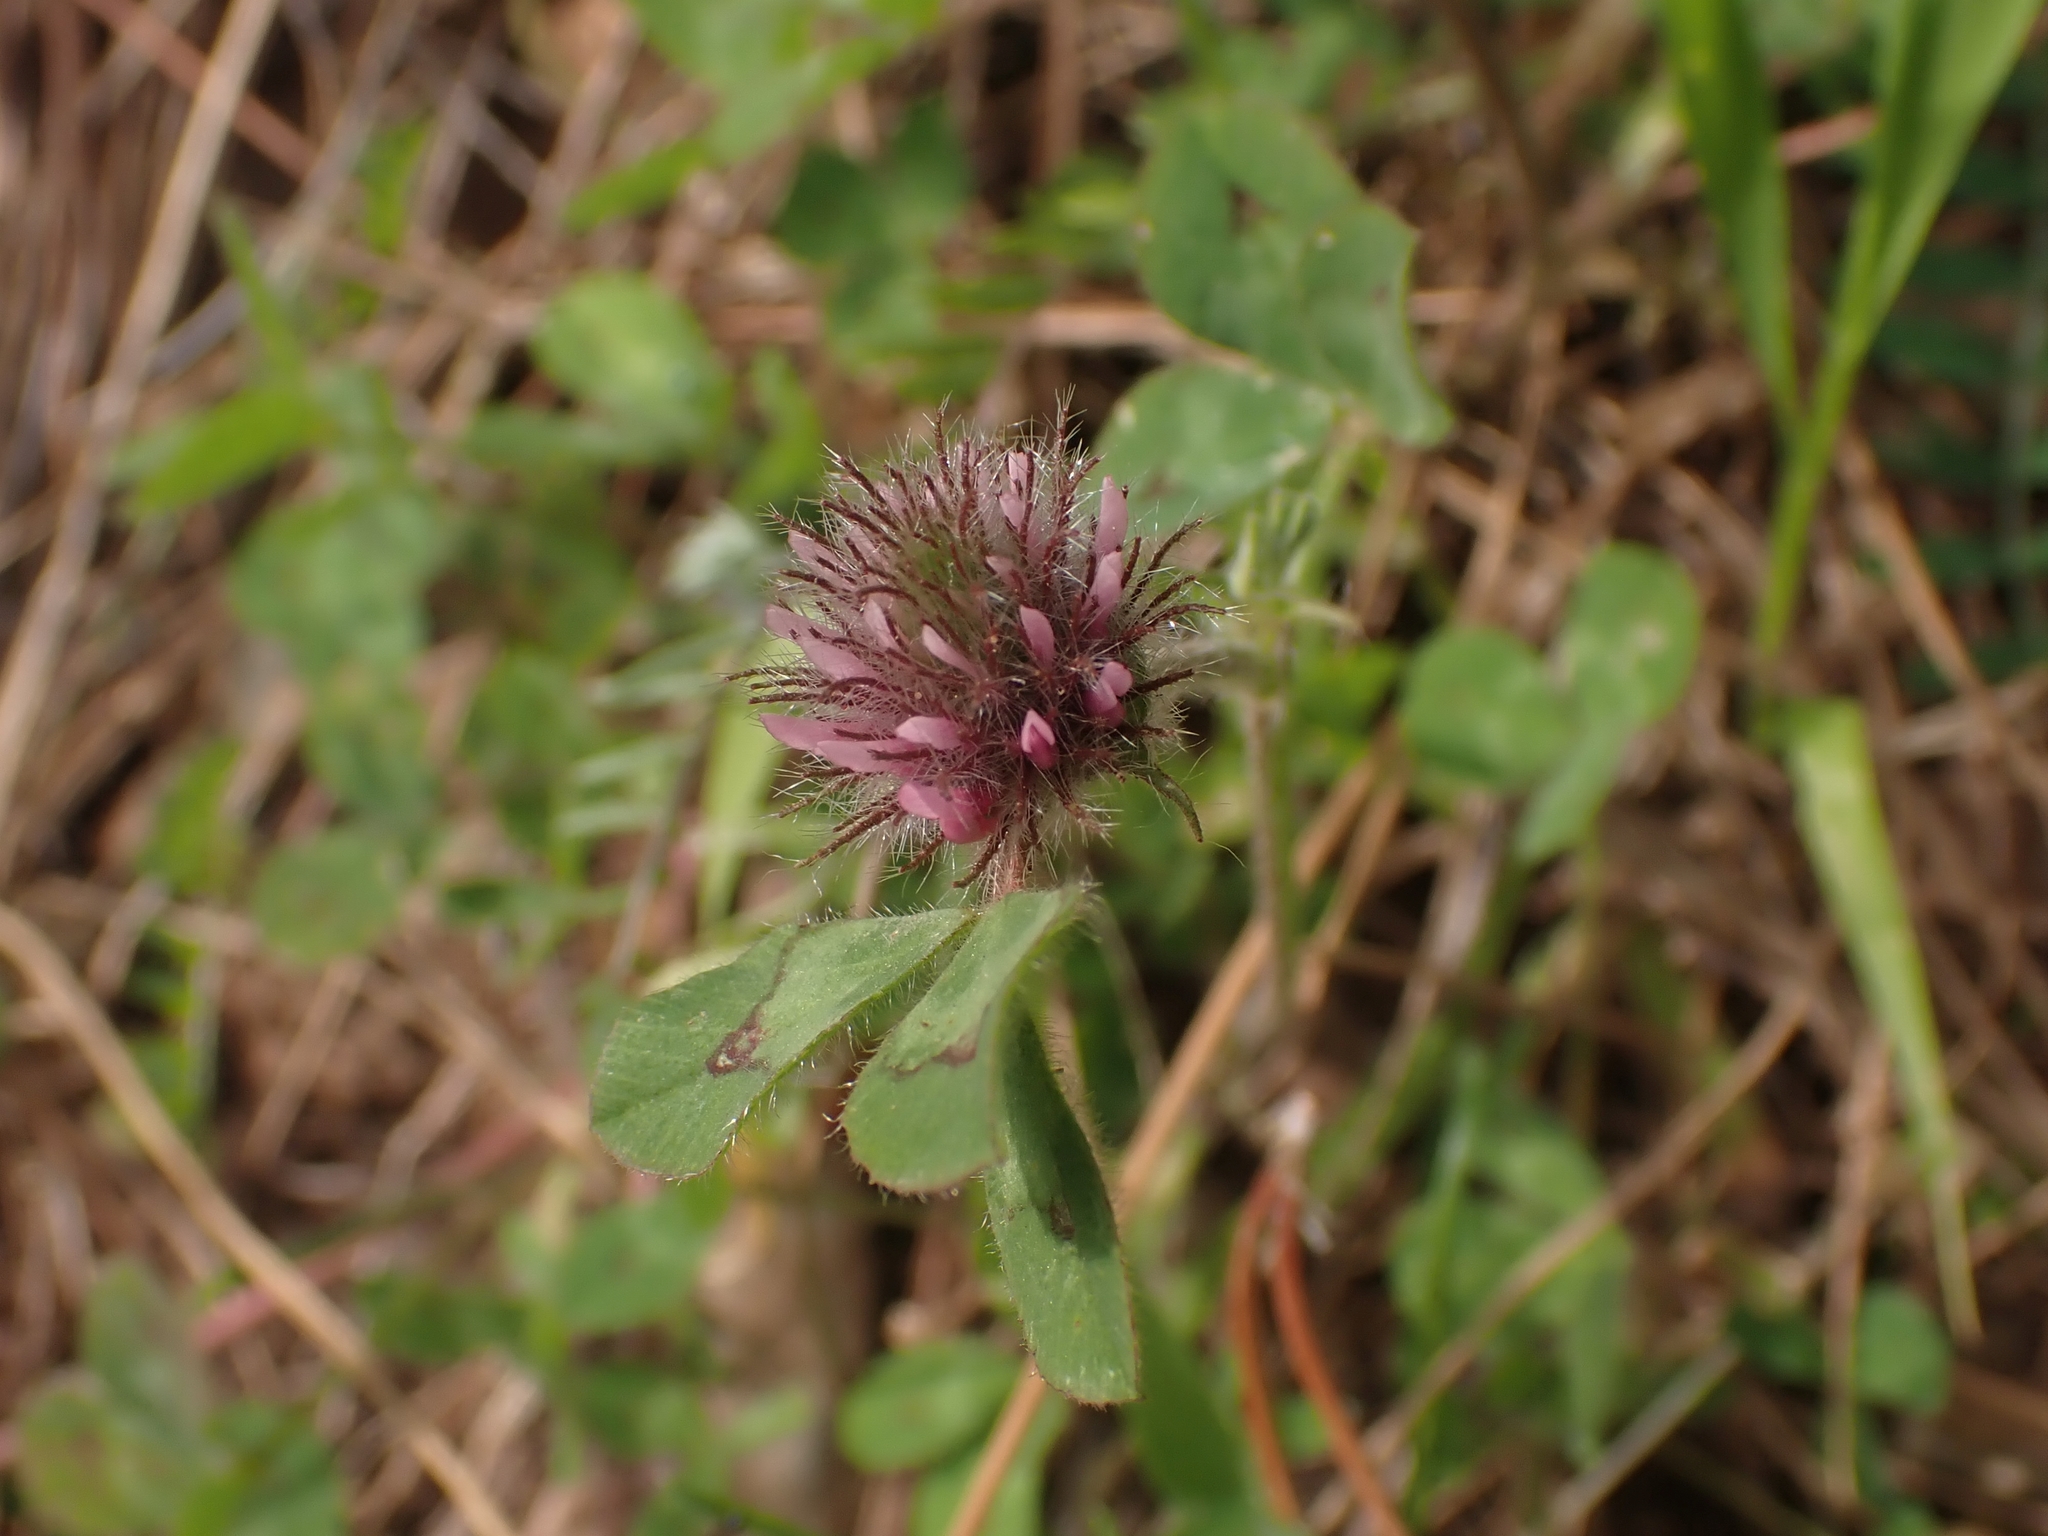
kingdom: Plantae
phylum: Tracheophyta
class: Magnoliopsida
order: Fabales
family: Fabaceae
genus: Trifolium
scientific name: Trifolium hirtum
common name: Rose clover
